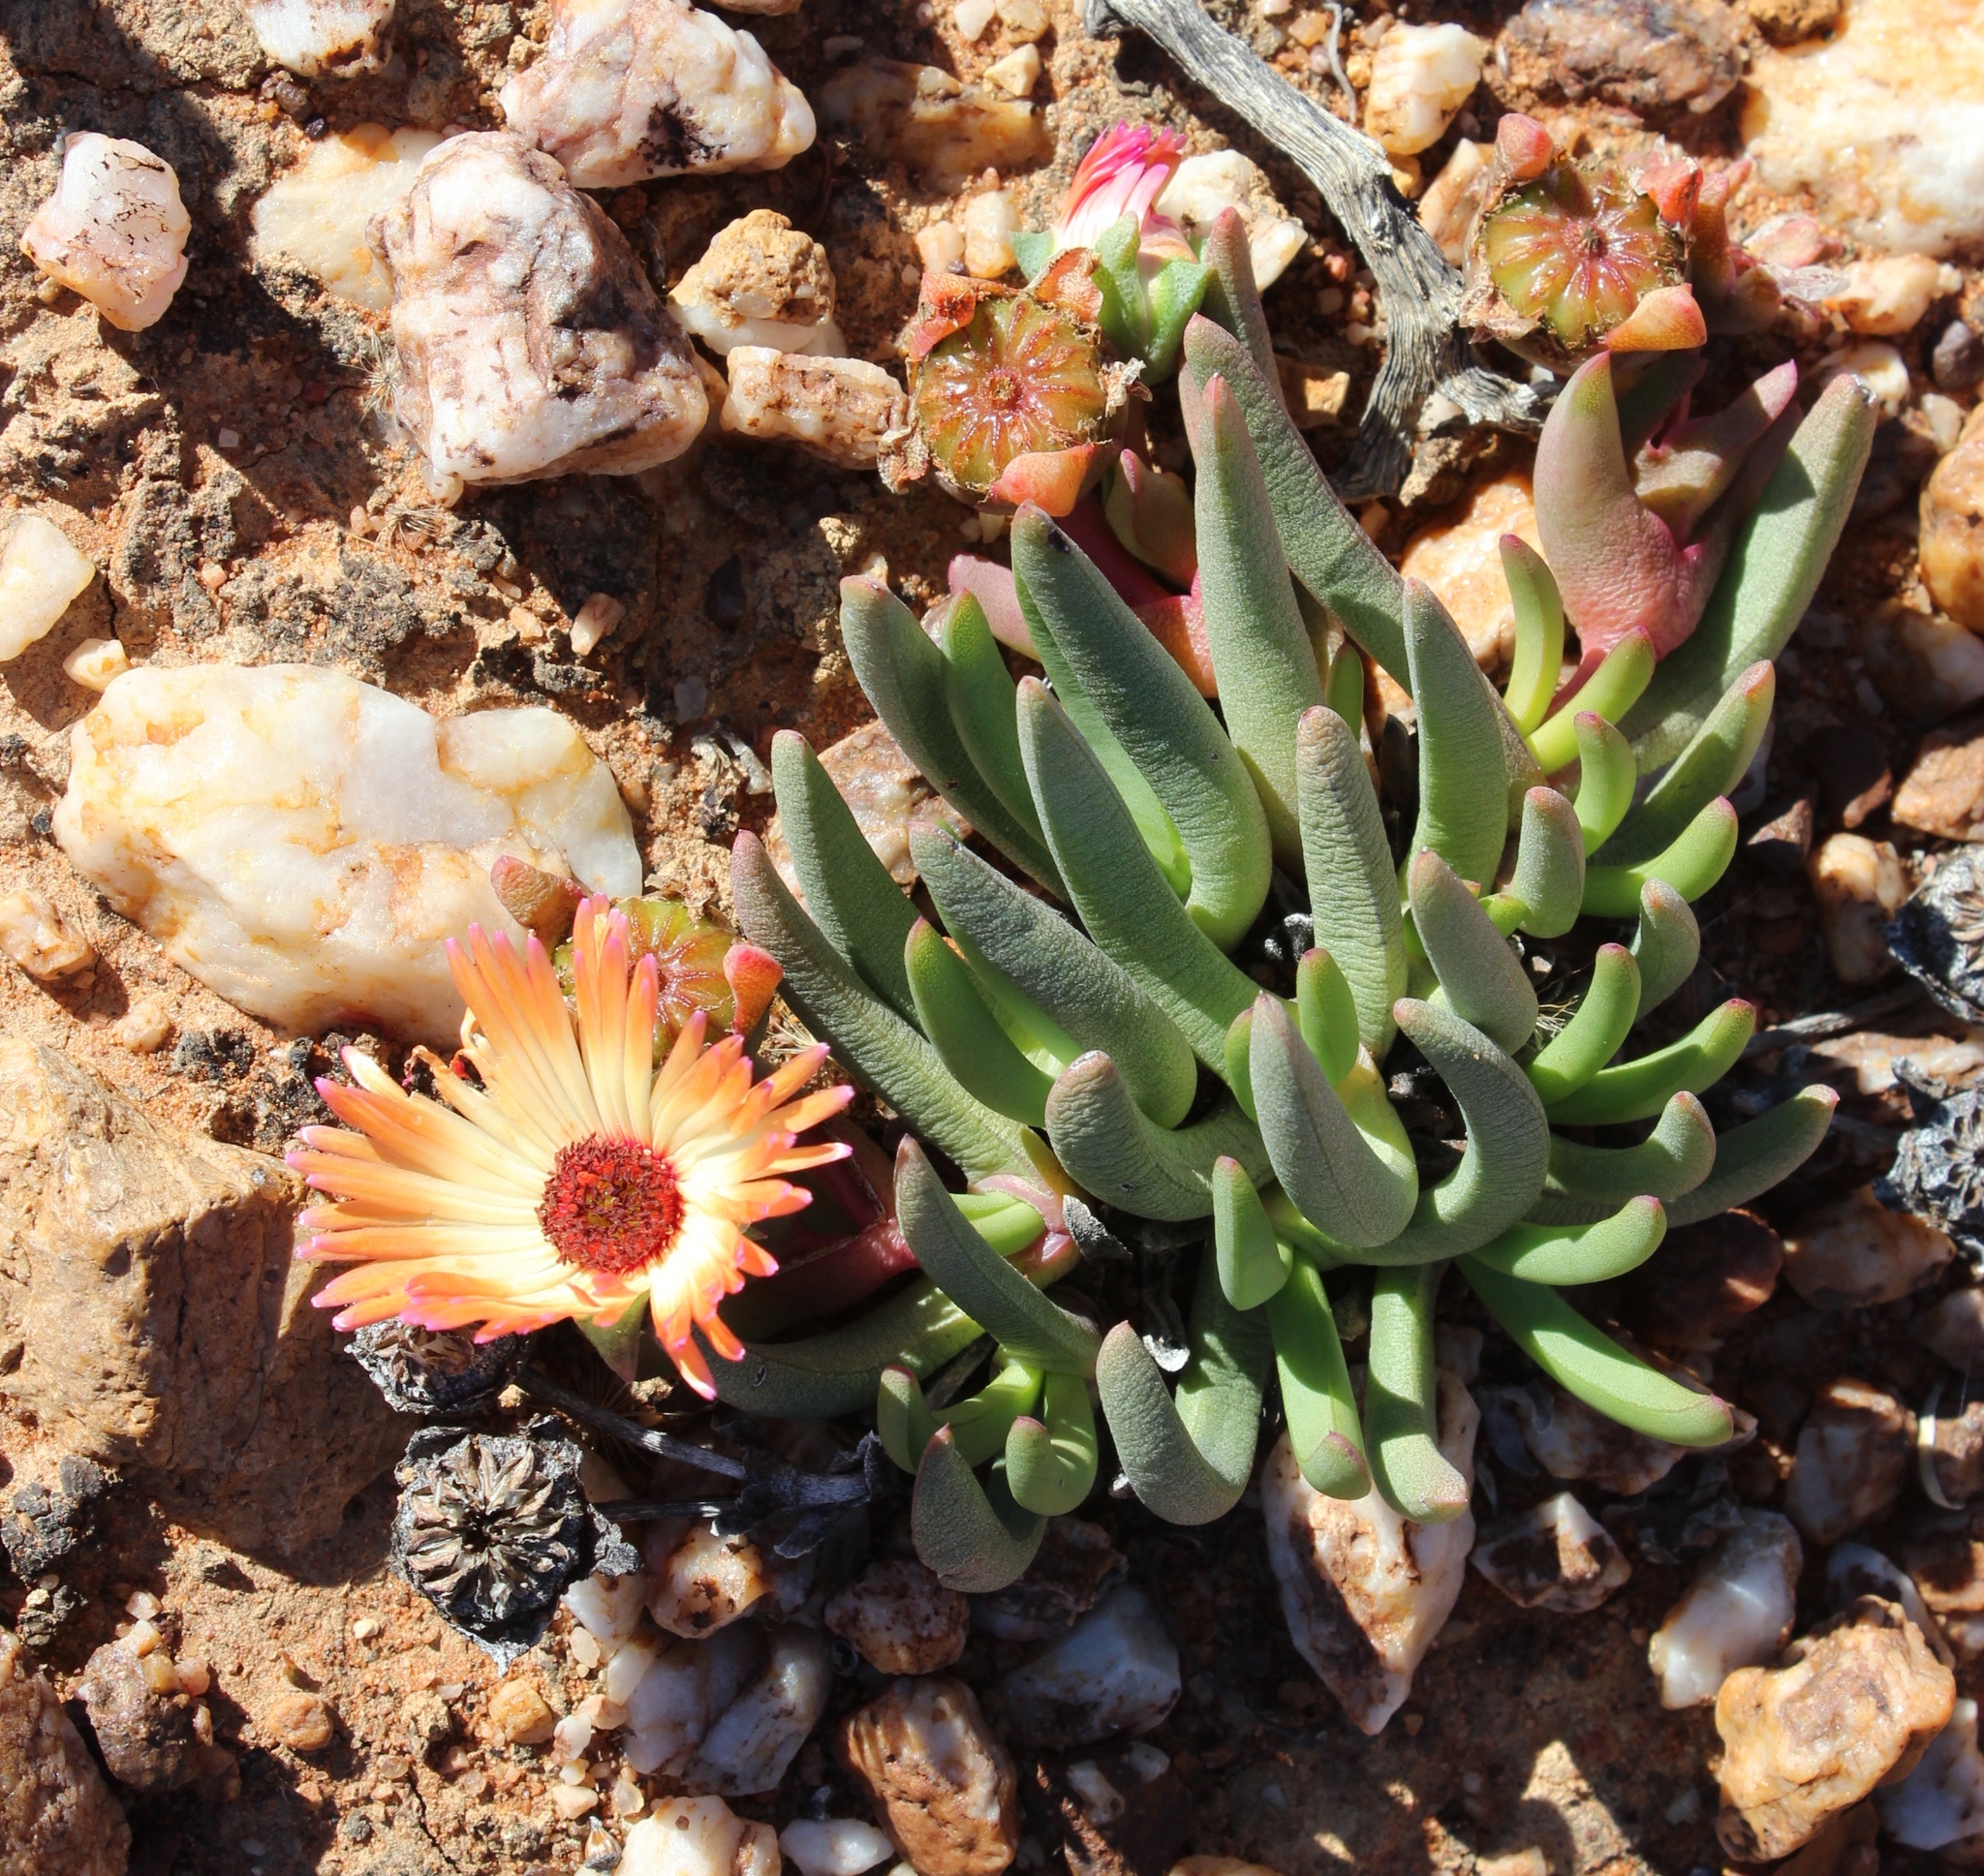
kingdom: Plantae
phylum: Tracheophyta
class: Magnoliopsida
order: Caryophyllales
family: Aizoaceae
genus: Cephalophyllum
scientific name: Cephalophyllum niveum
